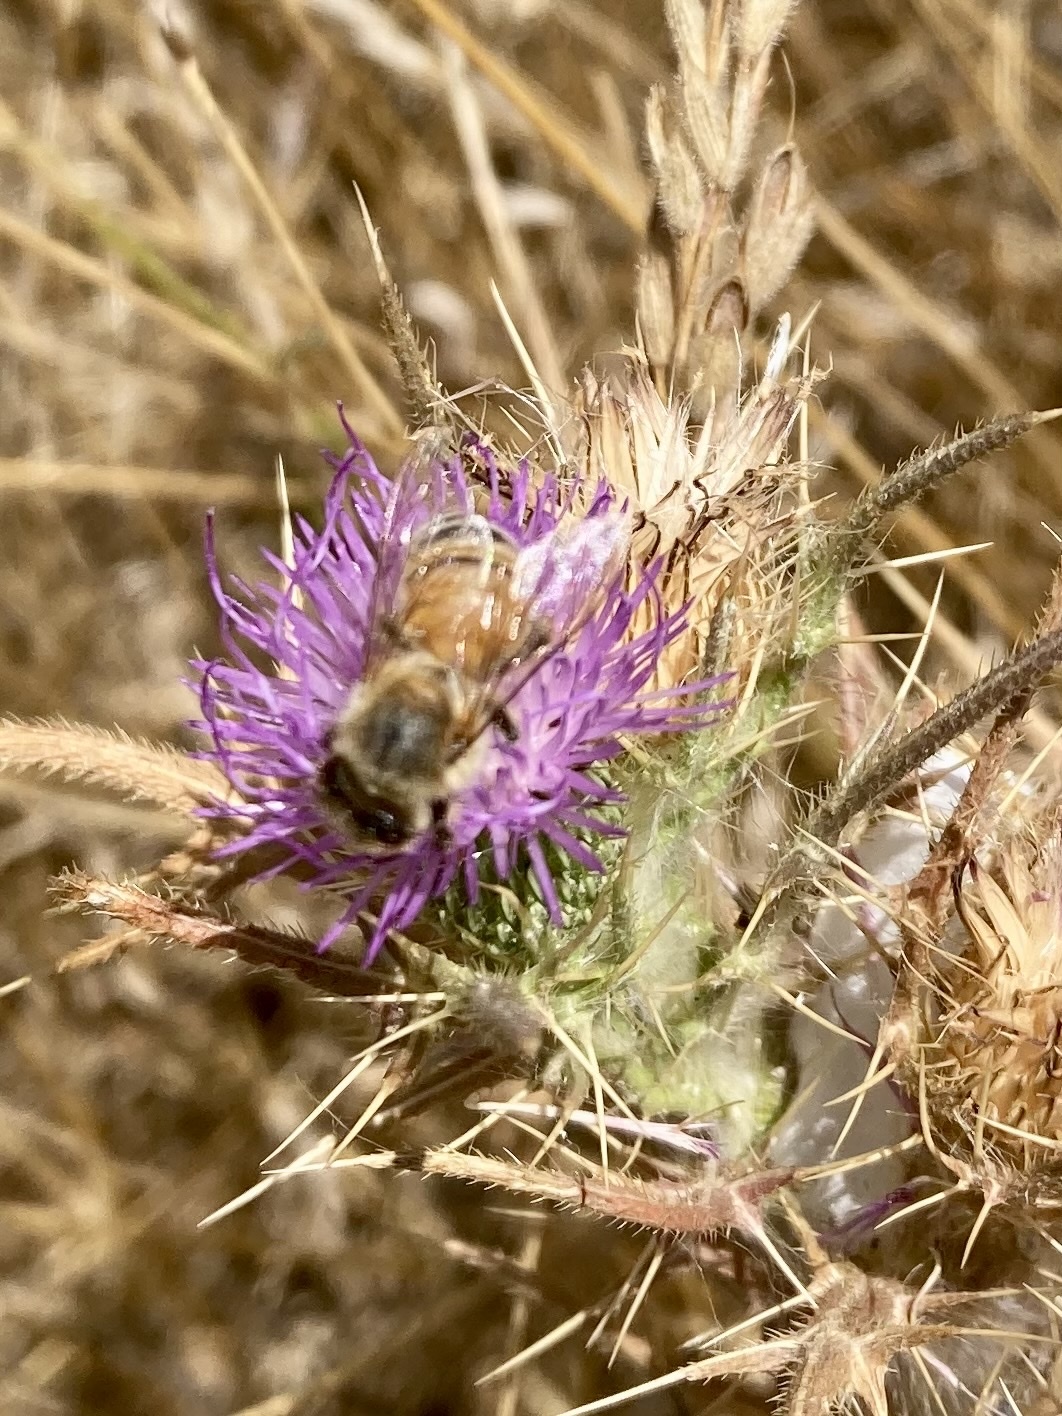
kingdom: Animalia
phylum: Arthropoda
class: Insecta
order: Hymenoptera
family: Apidae
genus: Apis
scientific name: Apis mellifera
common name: Honey bee
